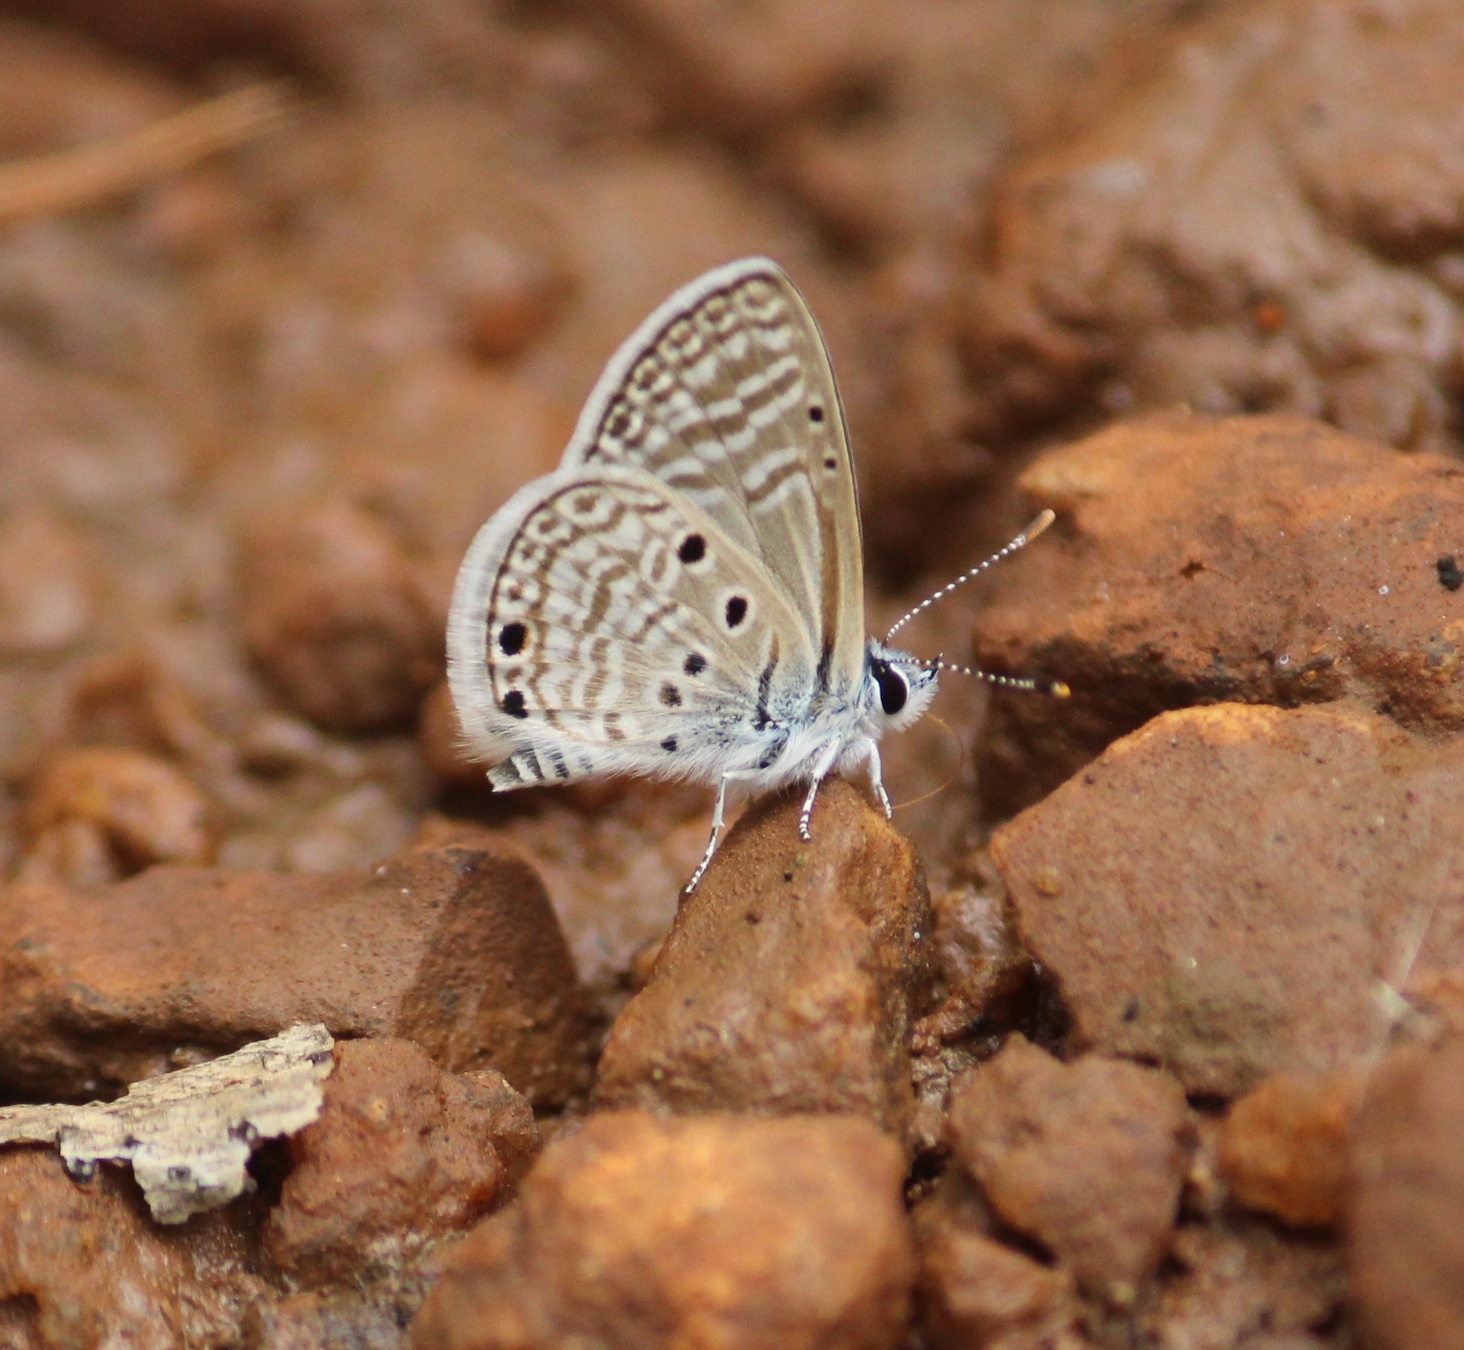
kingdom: Animalia
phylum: Arthropoda
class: Insecta
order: Lepidoptera
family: Lycaenidae
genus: Azanus
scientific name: Azanus ubaldus
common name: Desert babul blue
